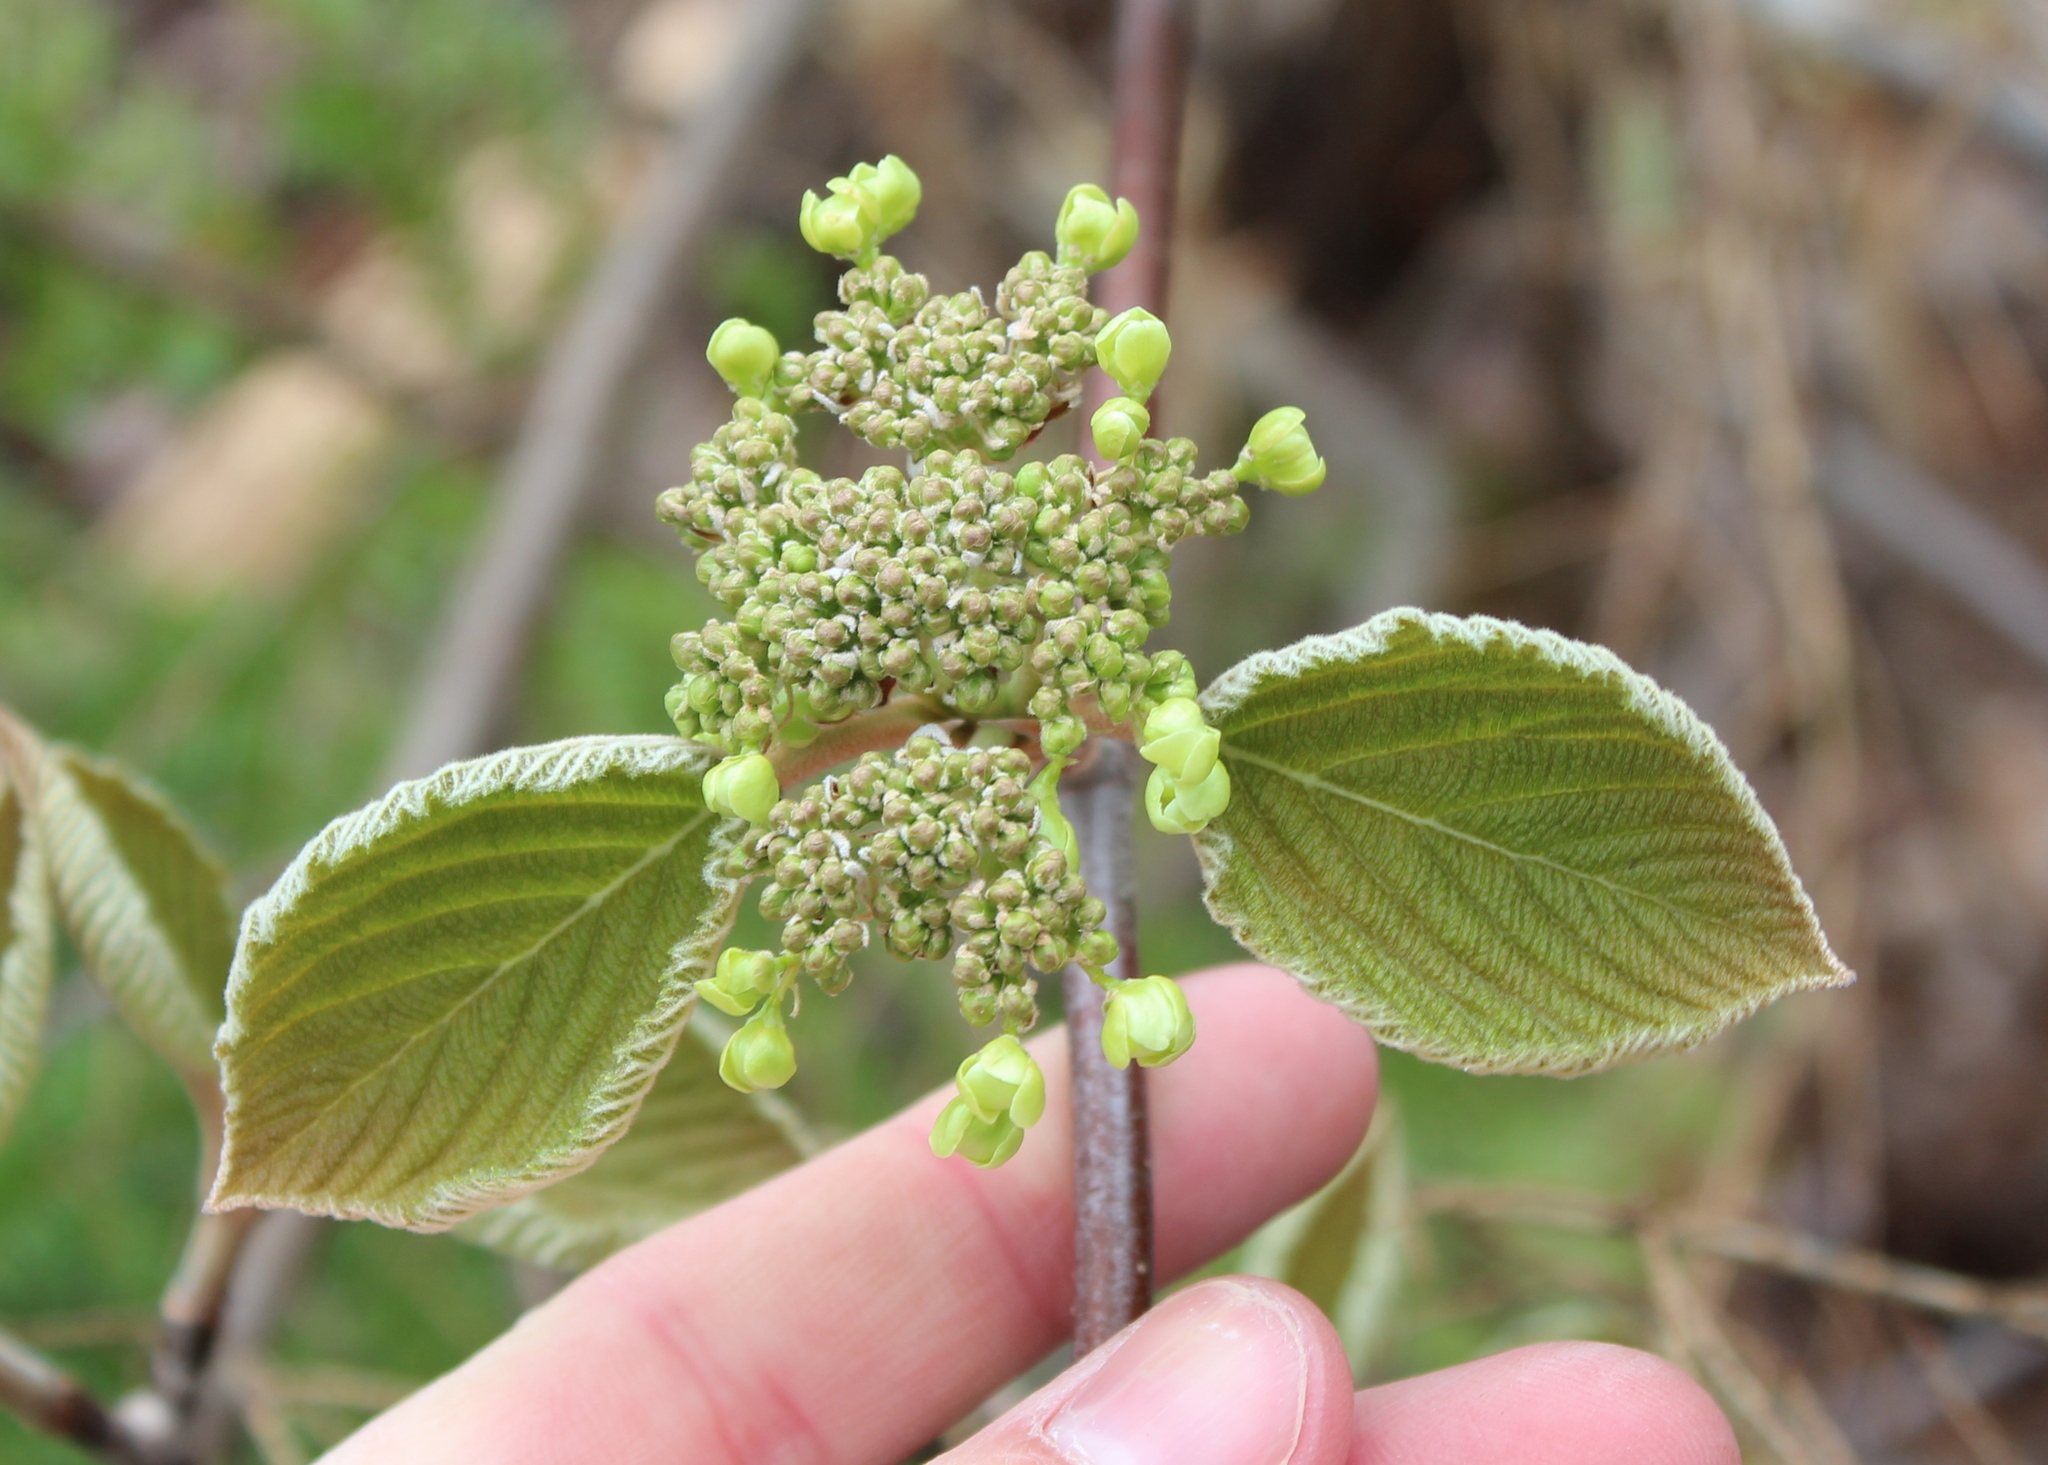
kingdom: Plantae
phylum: Tracheophyta
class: Magnoliopsida
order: Dipsacales
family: Viburnaceae
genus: Viburnum
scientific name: Viburnum lantanoides
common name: Hobblebush
